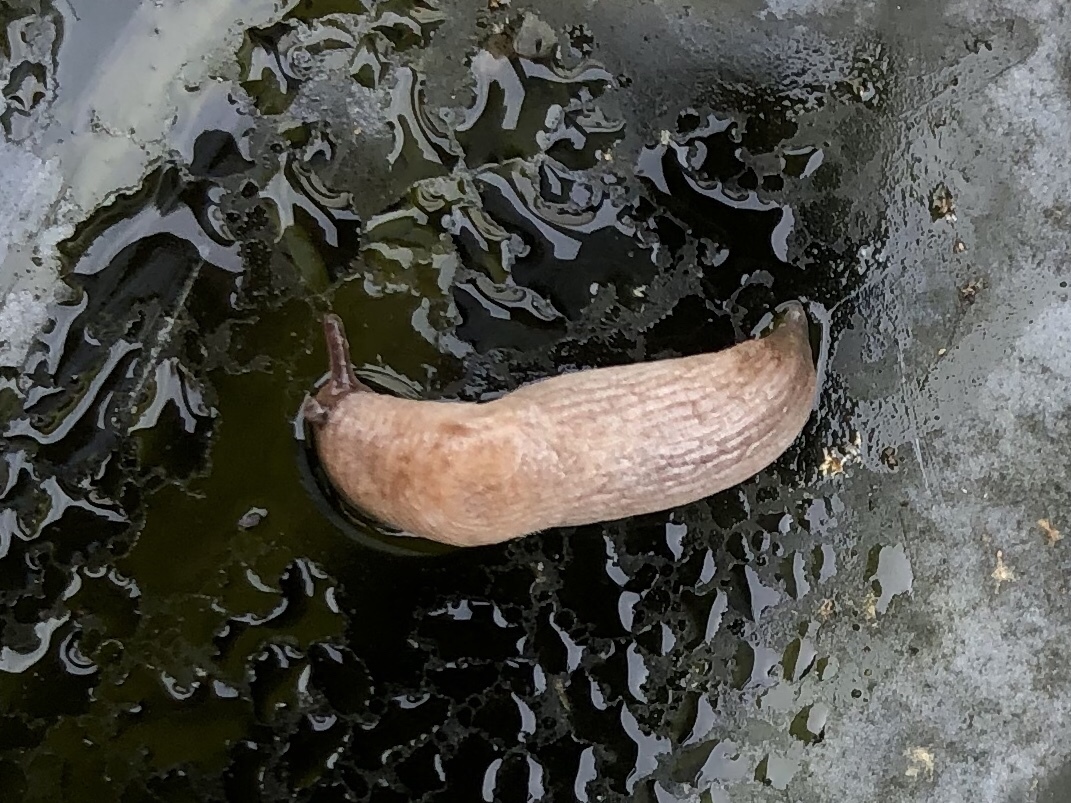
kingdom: Animalia
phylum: Mollusca
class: Gastropoda
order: Stylommatophora
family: Agriolimacidae
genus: Deroceras
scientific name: Deroceras reticulatum
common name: Gray field slug
